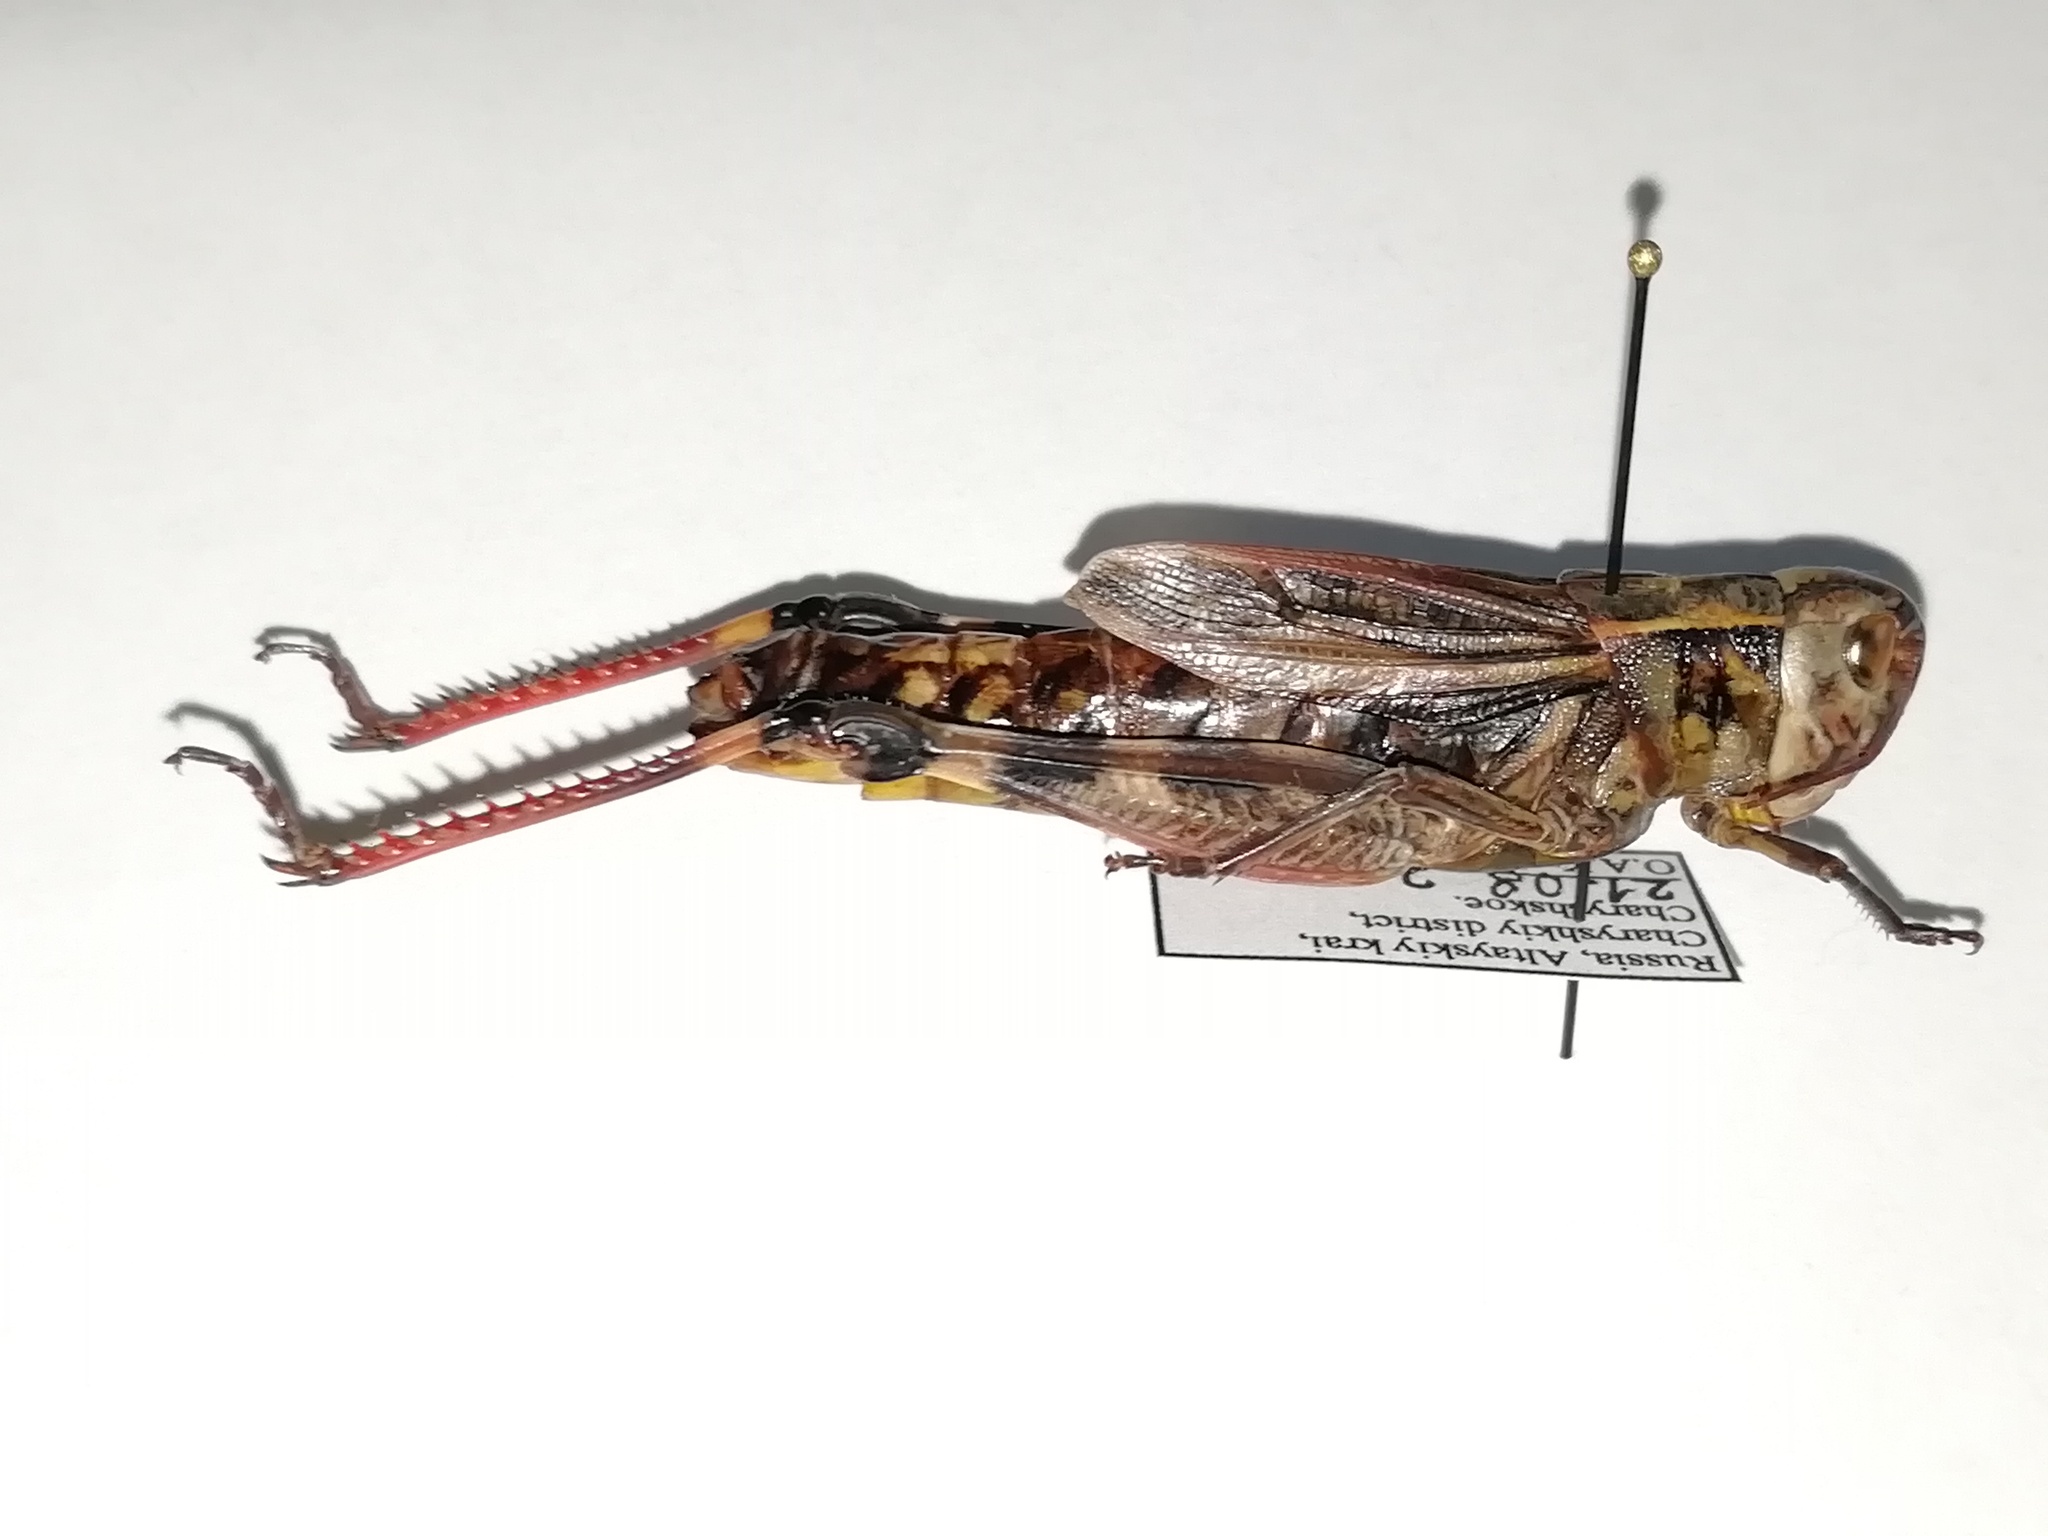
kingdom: Animalia
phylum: Arthropoda
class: Insecta
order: Orthoptera
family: Acrididae
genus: Arcyptera
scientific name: Arcyptera fusca
